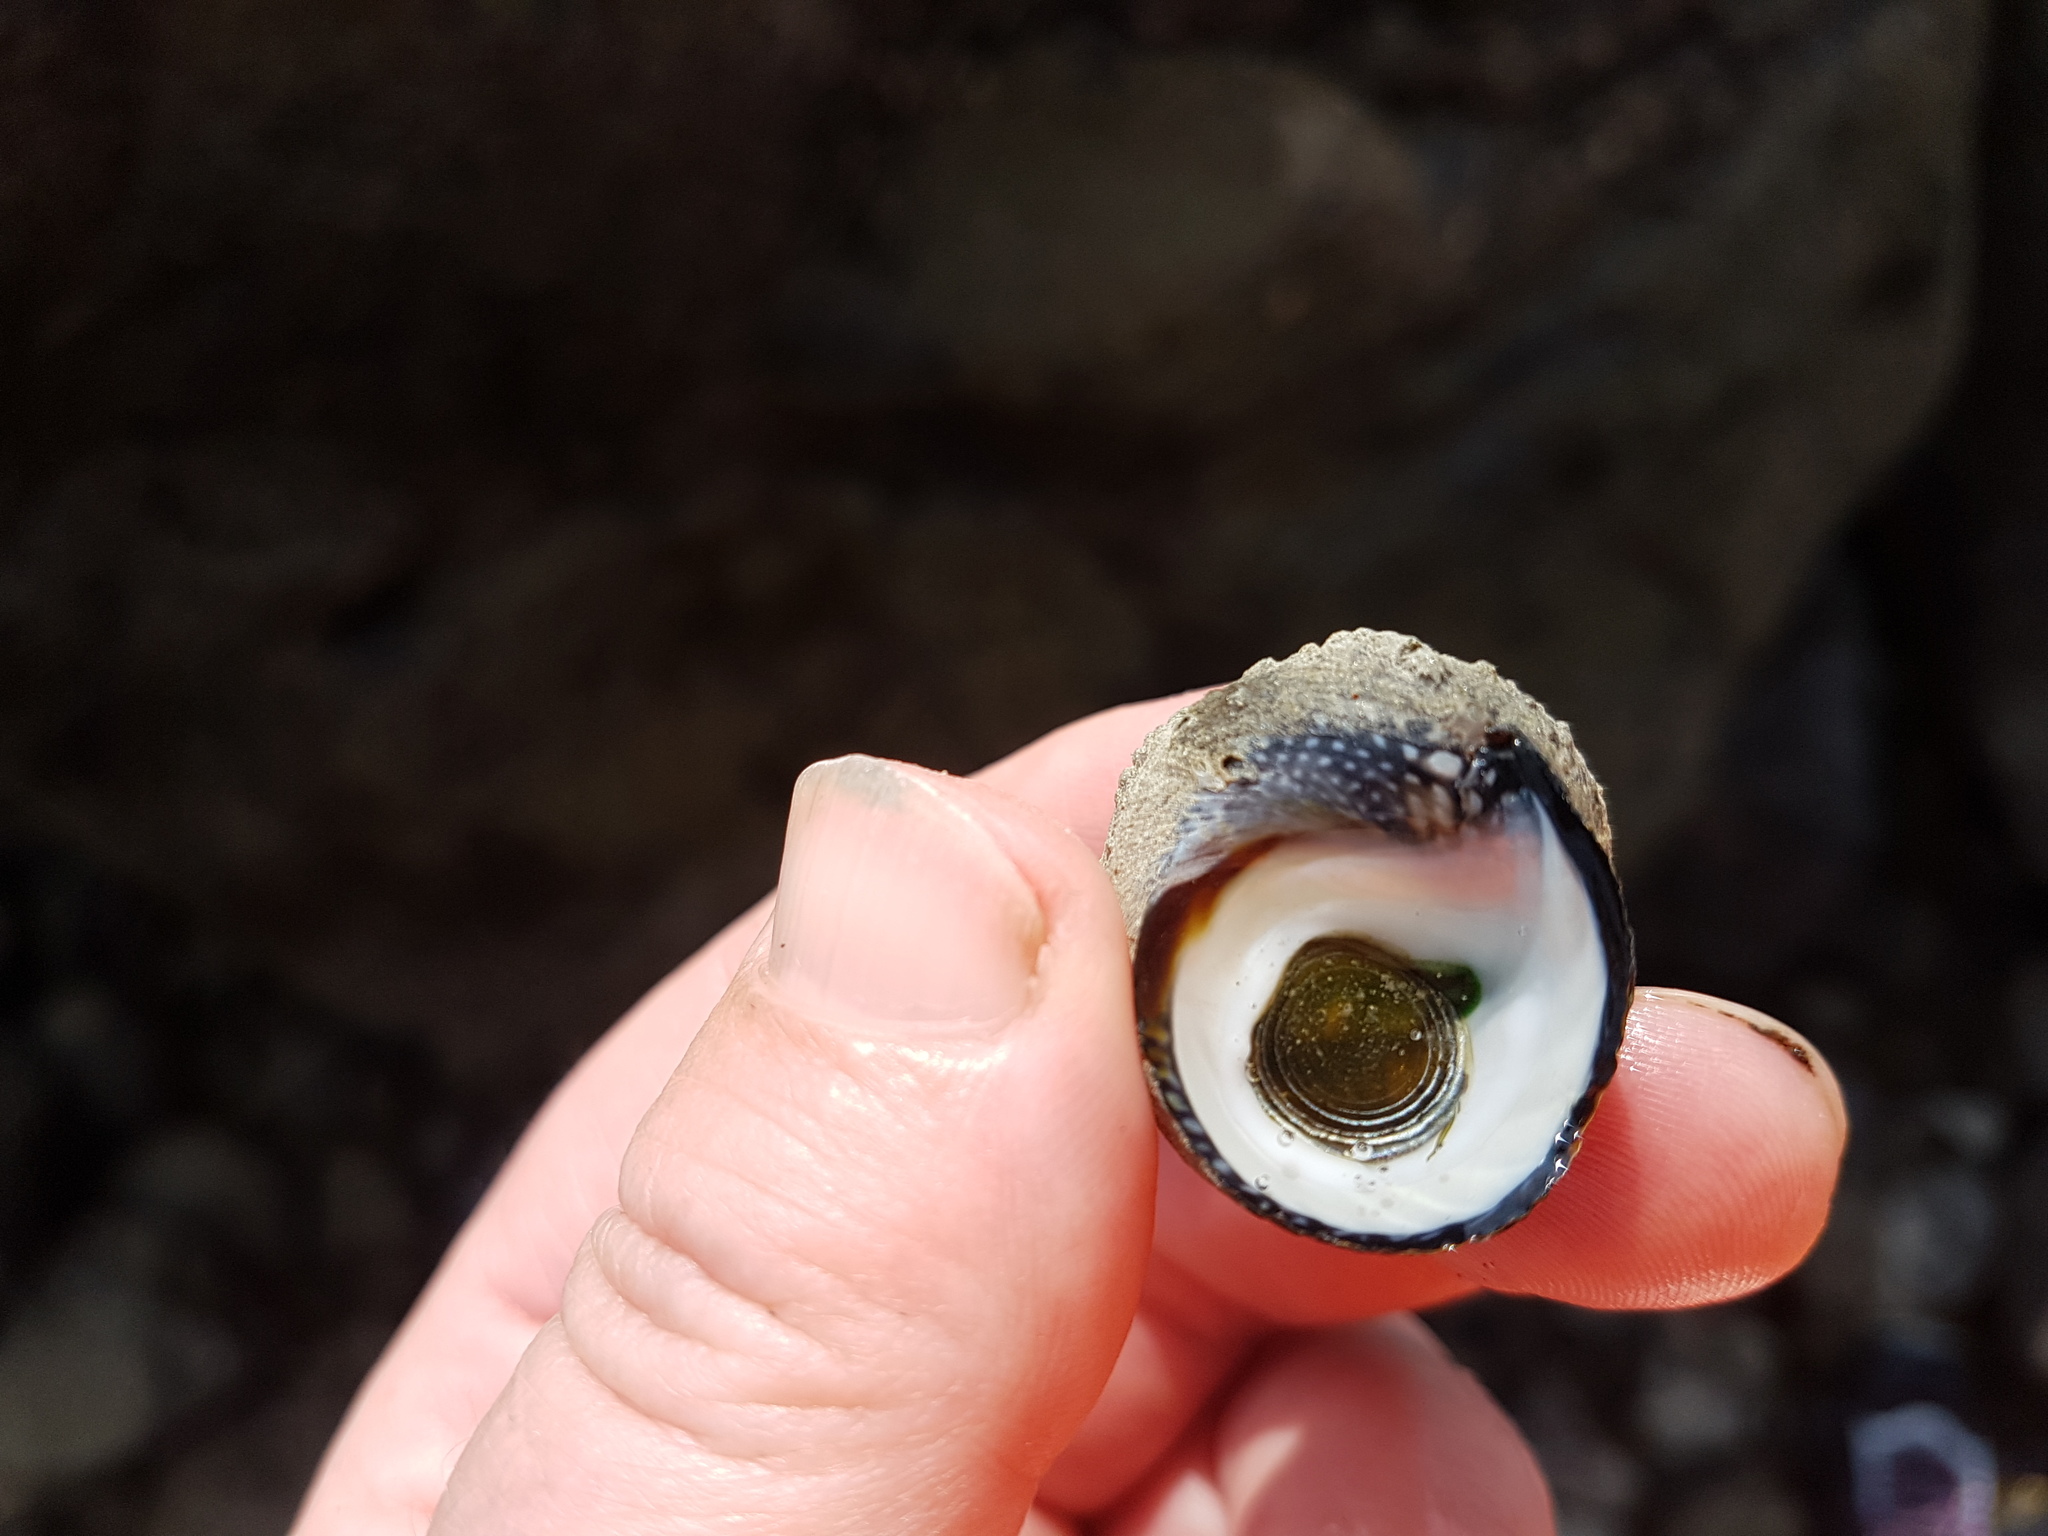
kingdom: Animalia
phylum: Mollusca
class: Gastropoda
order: Trochida
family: Trochidae
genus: Diloma
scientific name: Diloma aethiops
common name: Scorched monodont
